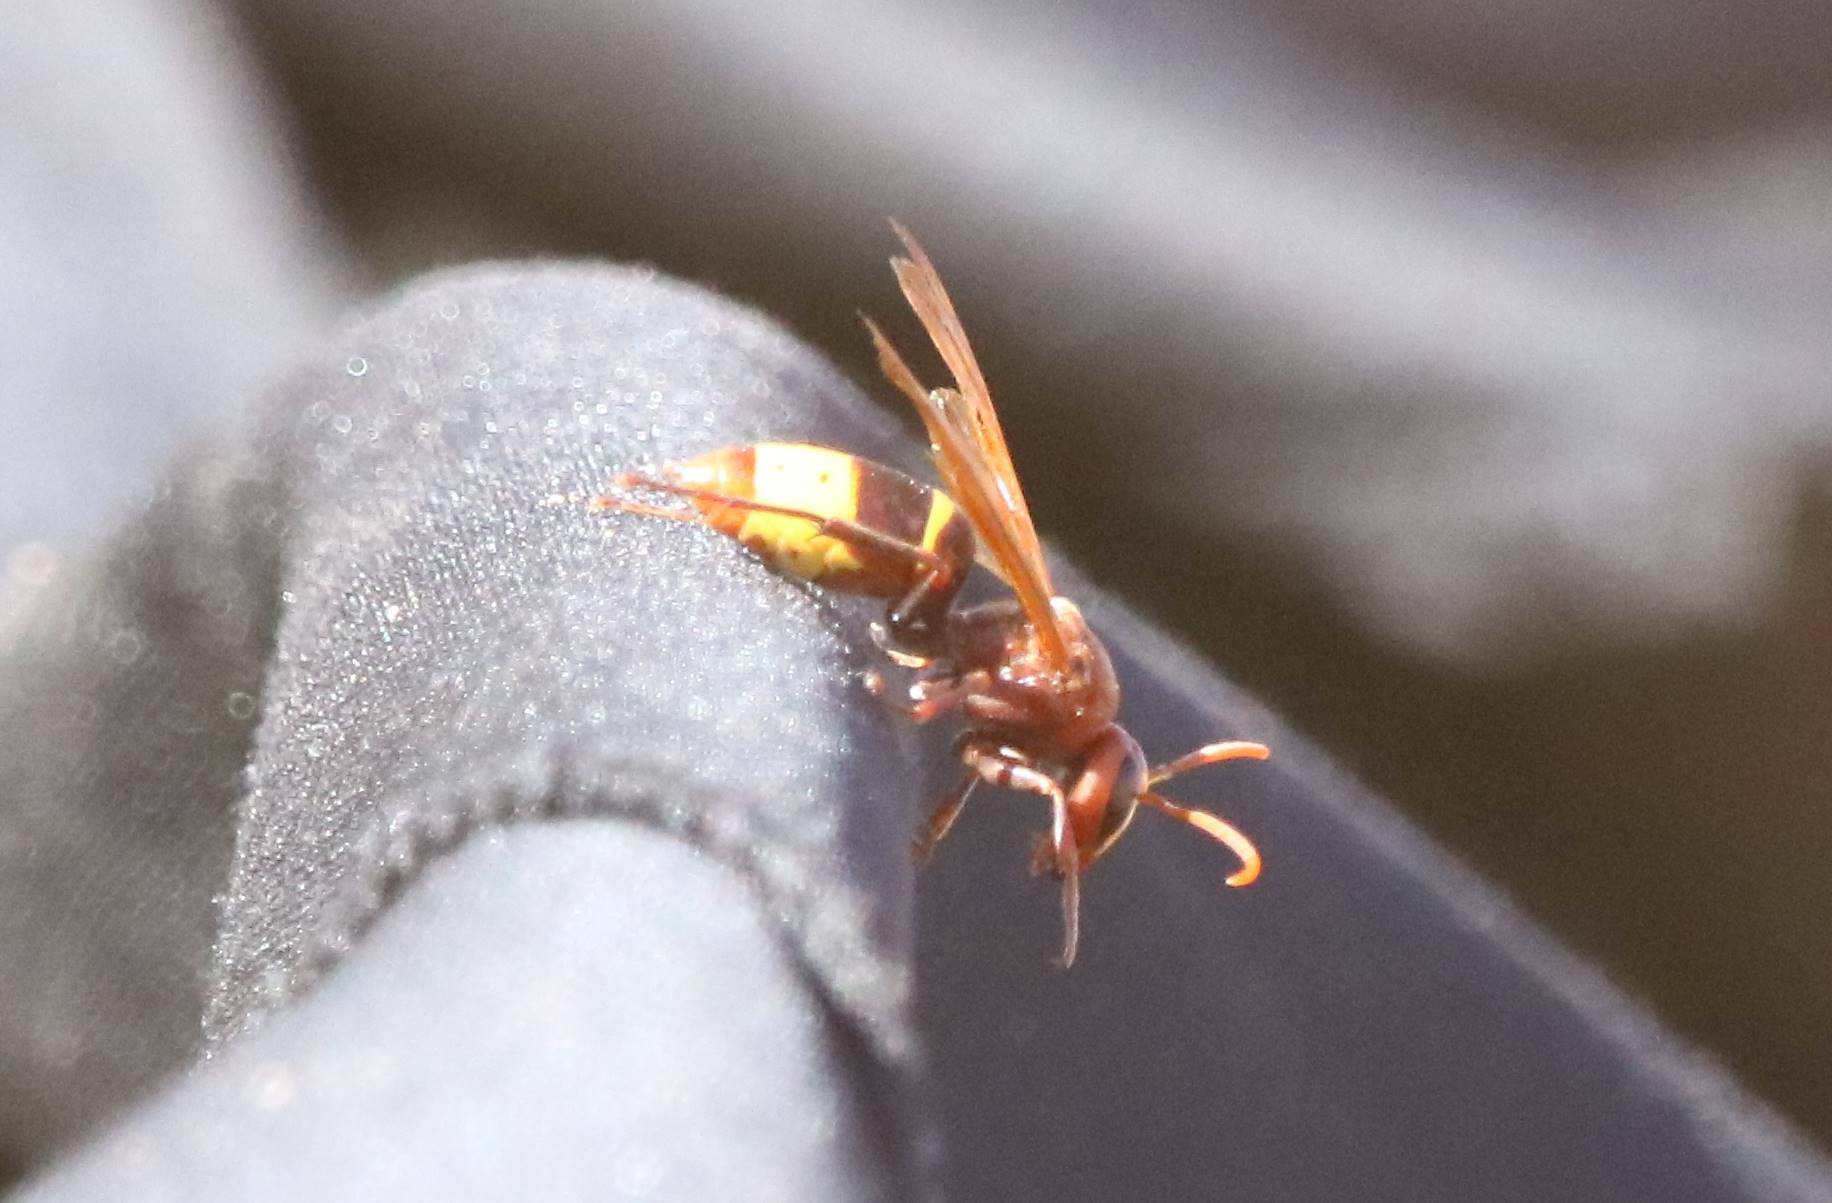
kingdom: Animalia
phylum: Arthropoda
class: Insecta
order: Hymenoptera
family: Vespidae
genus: Vespa
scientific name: Vespa orientalis
